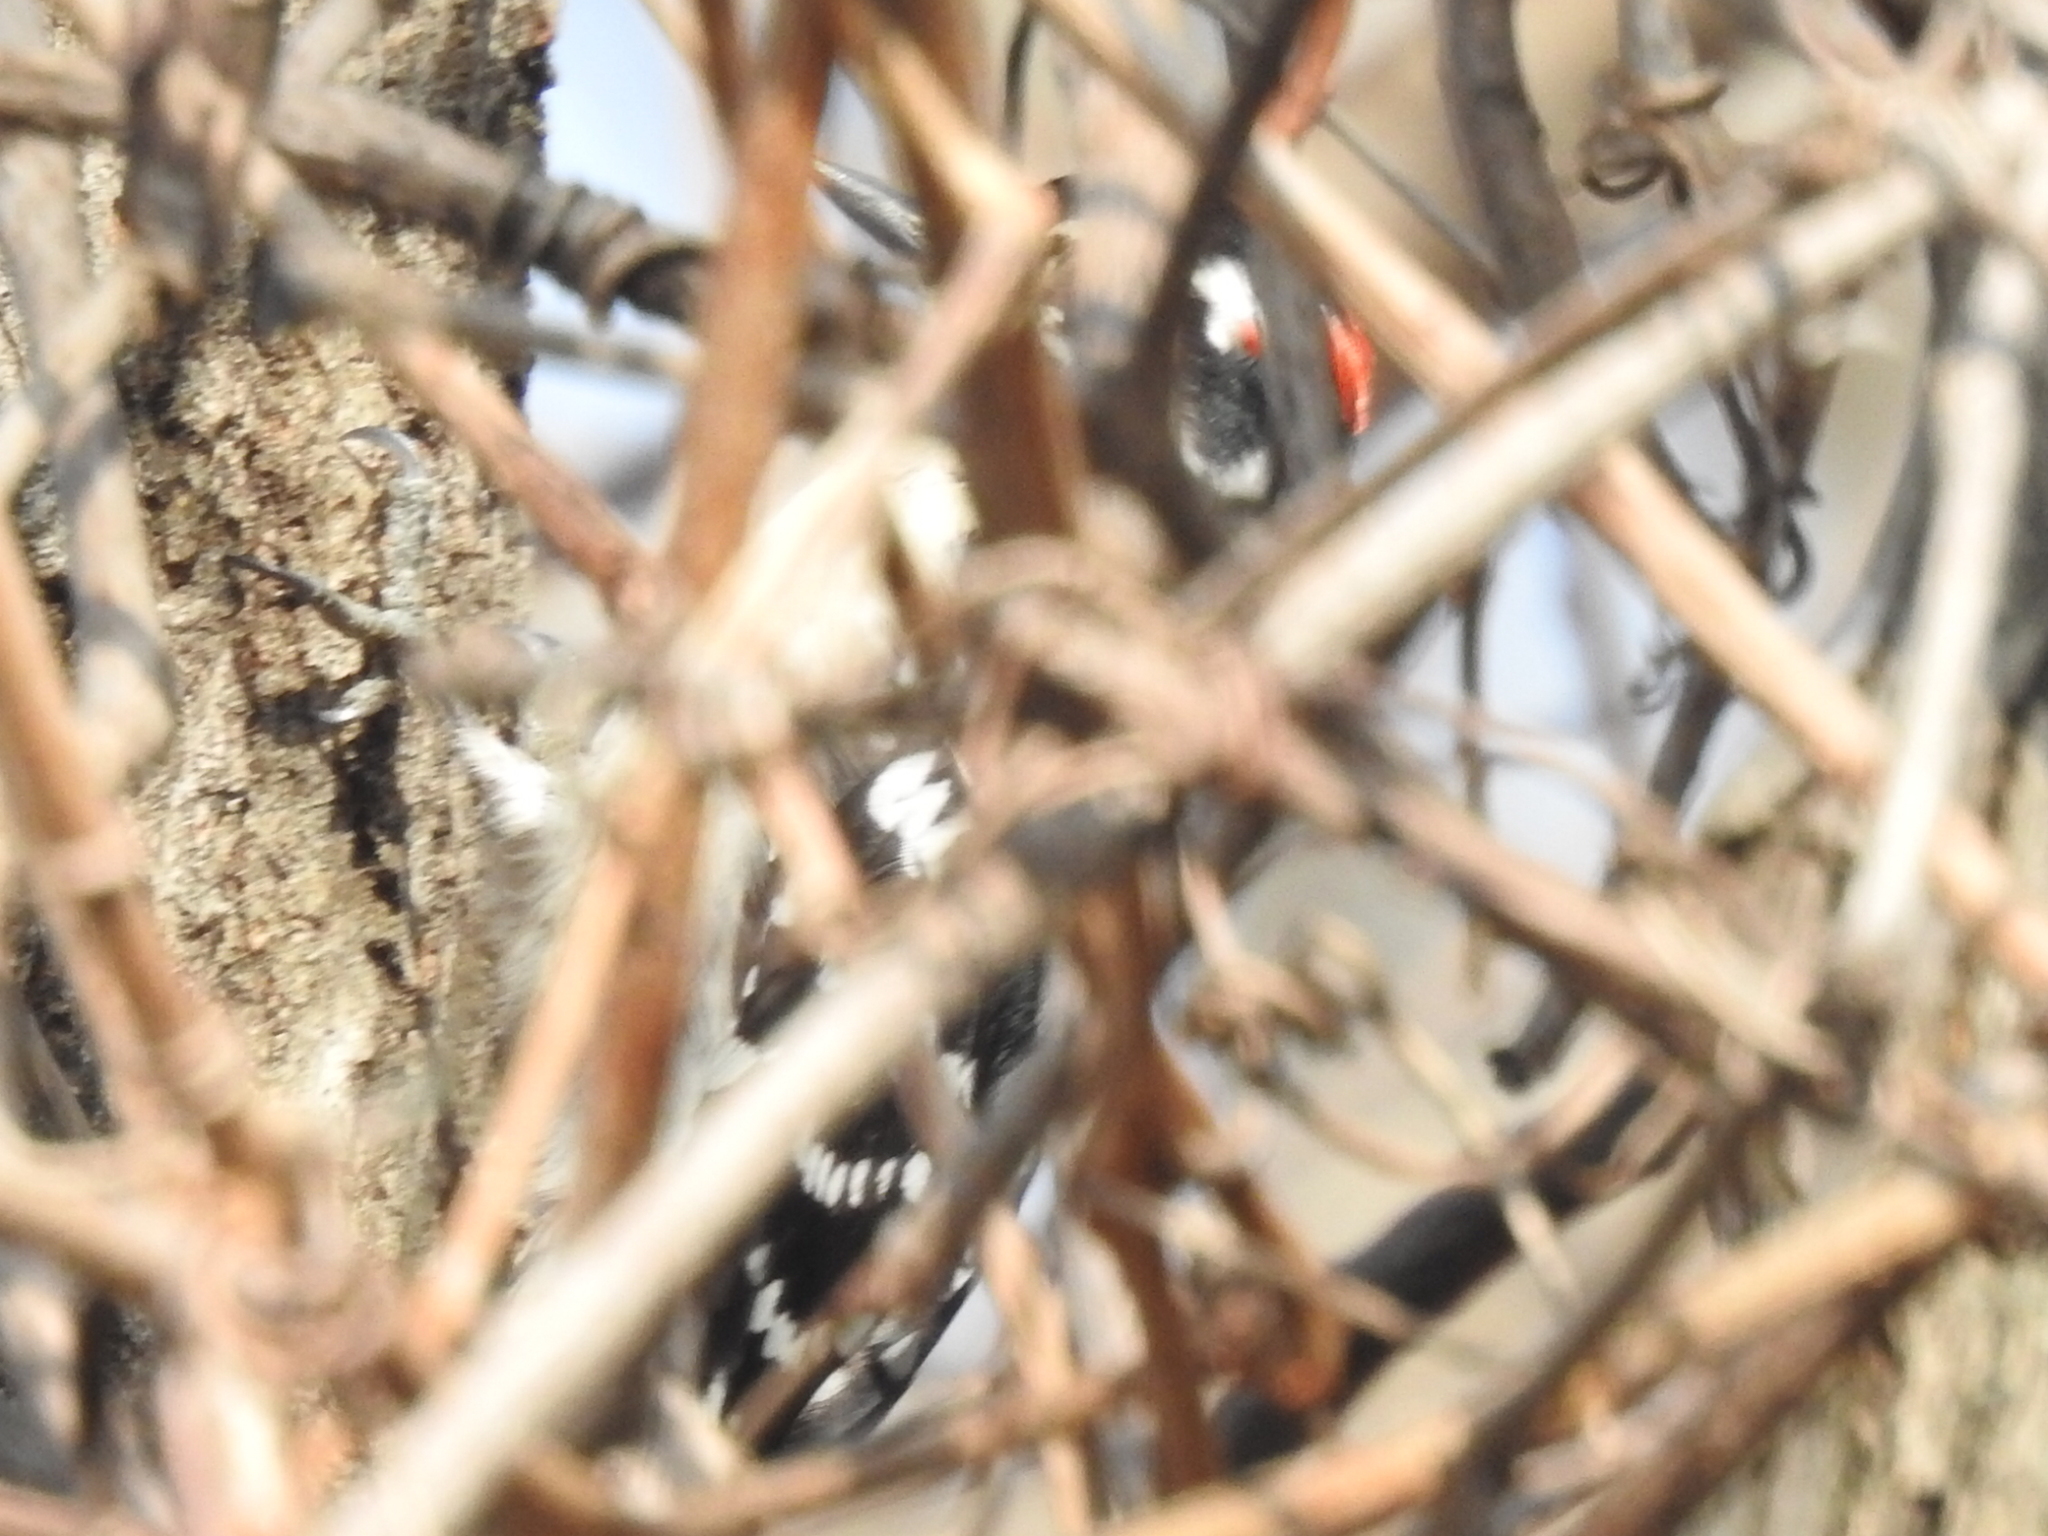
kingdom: Animalia
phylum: Chordata
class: Aves
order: Piciformes
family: Picidae
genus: Dryobates
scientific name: Dryobates pubescens
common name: Downy woodpecker
